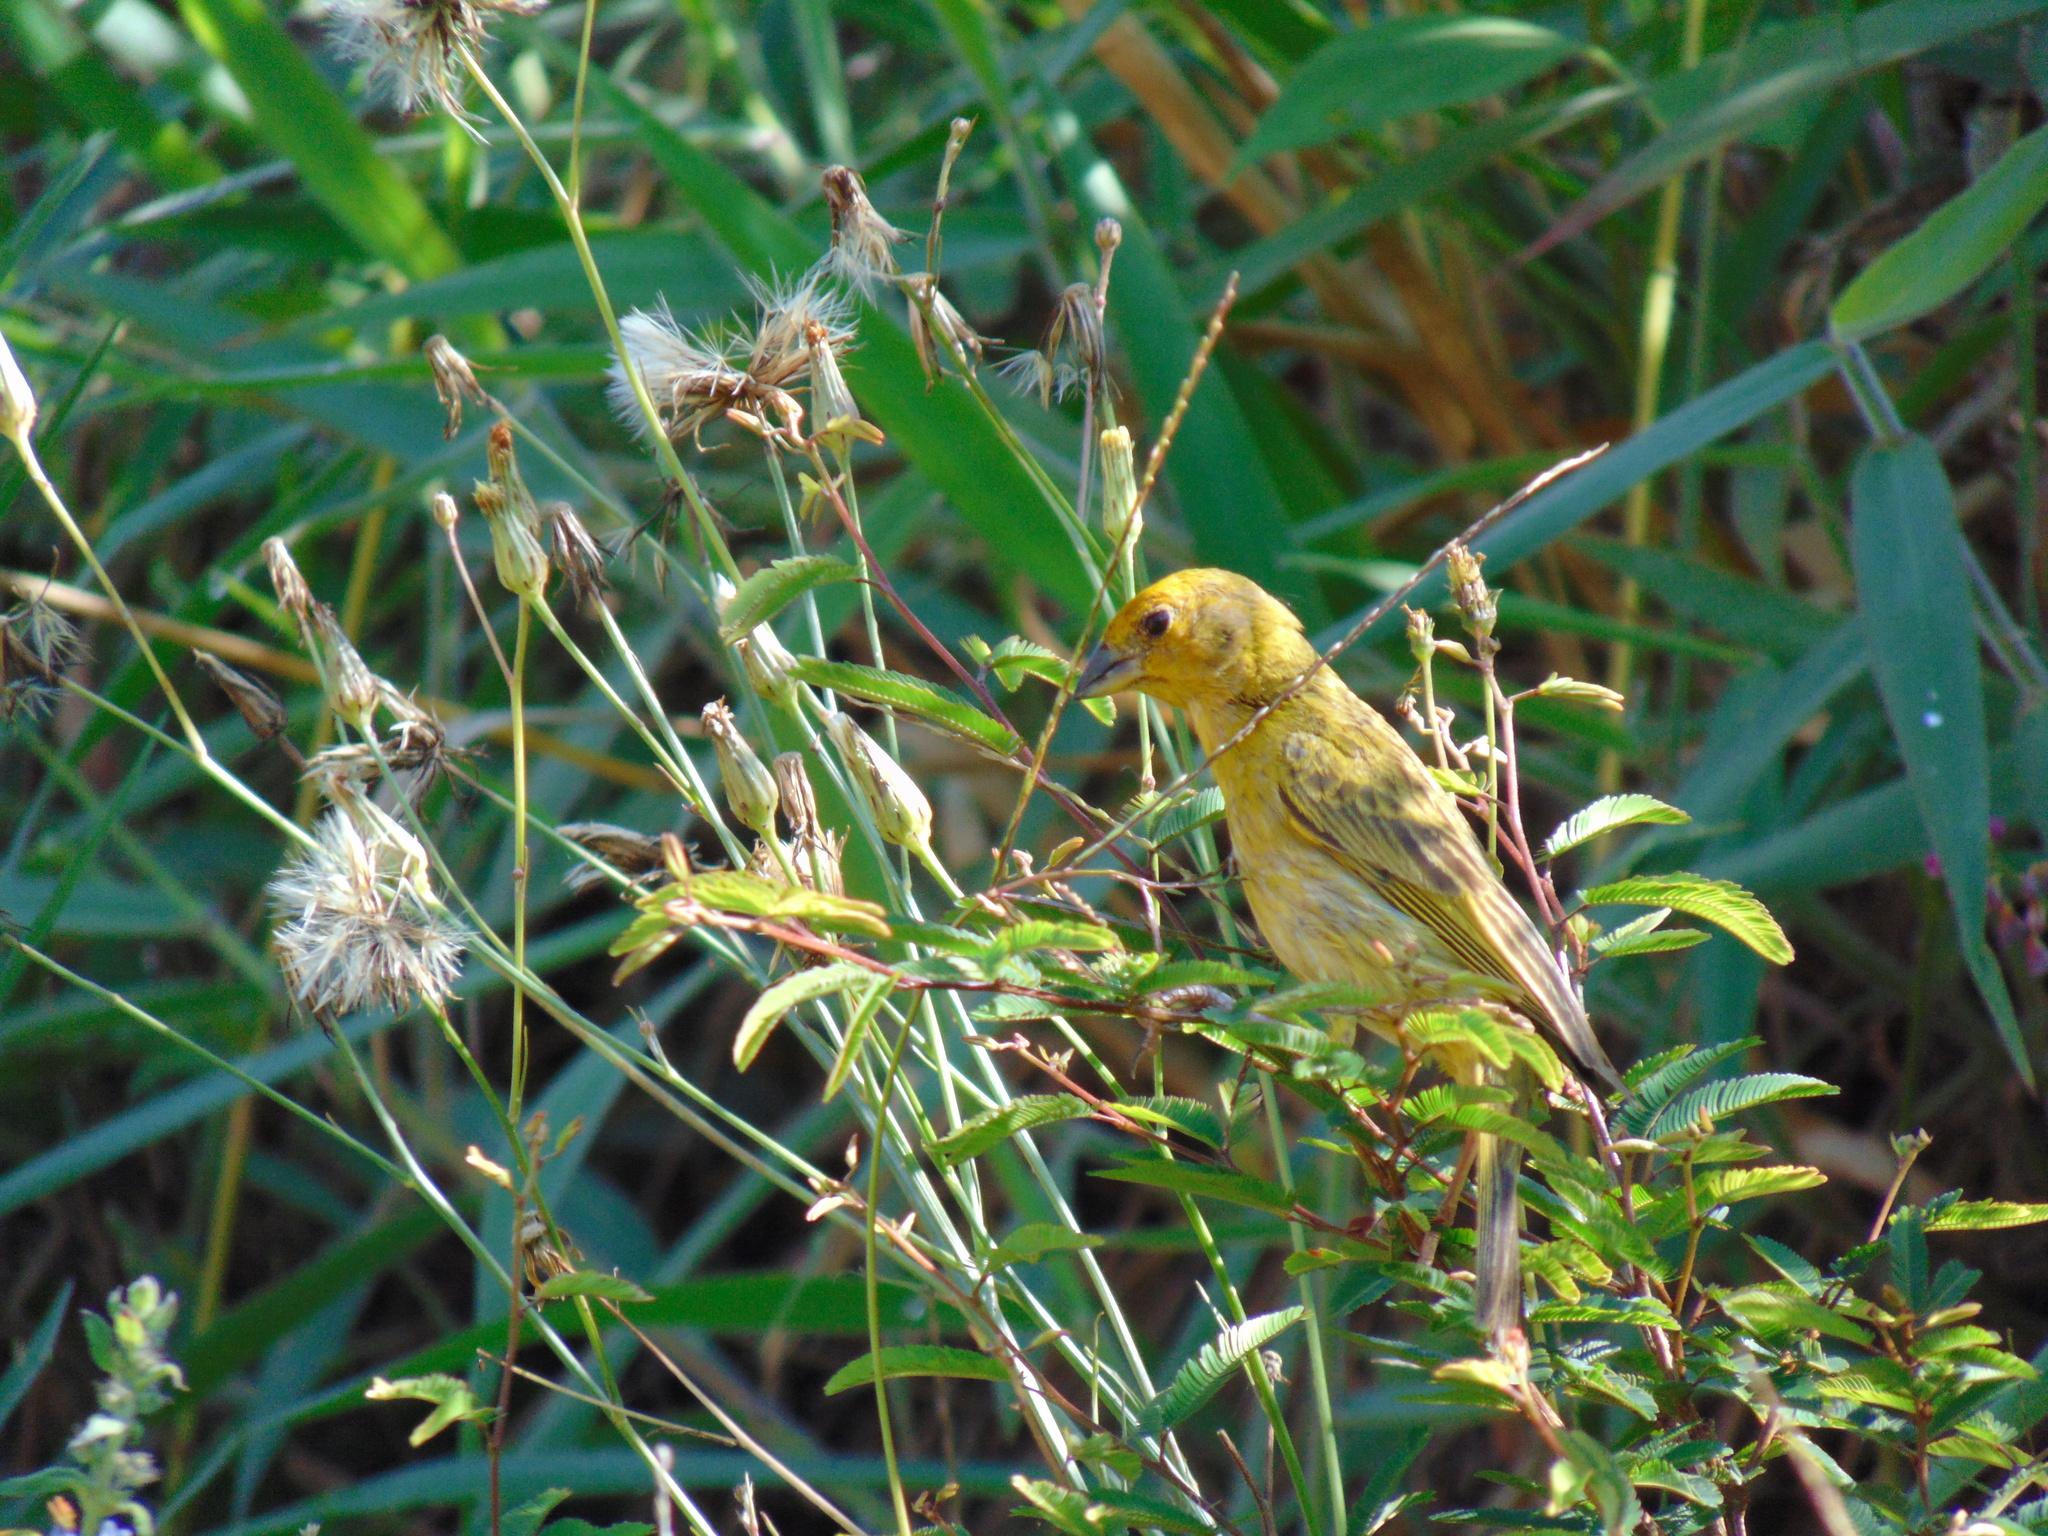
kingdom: Animalia
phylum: Chordata
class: Aves
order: Passeriformes
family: Thraupidae
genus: Sicalis
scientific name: Sicalis flaveola
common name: Saffron finch
